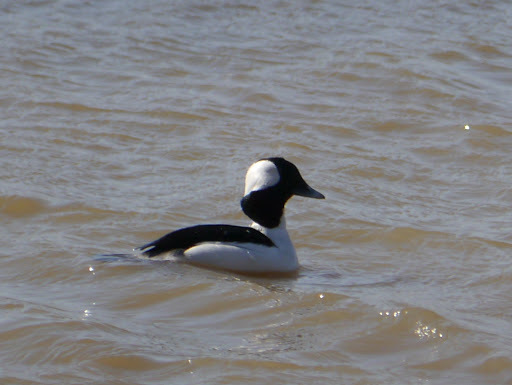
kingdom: Animalia
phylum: Chordata
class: Aves
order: Anseriformes
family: Anatidae
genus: Bucephala
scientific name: Bucephala albeola
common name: Bufflehead
